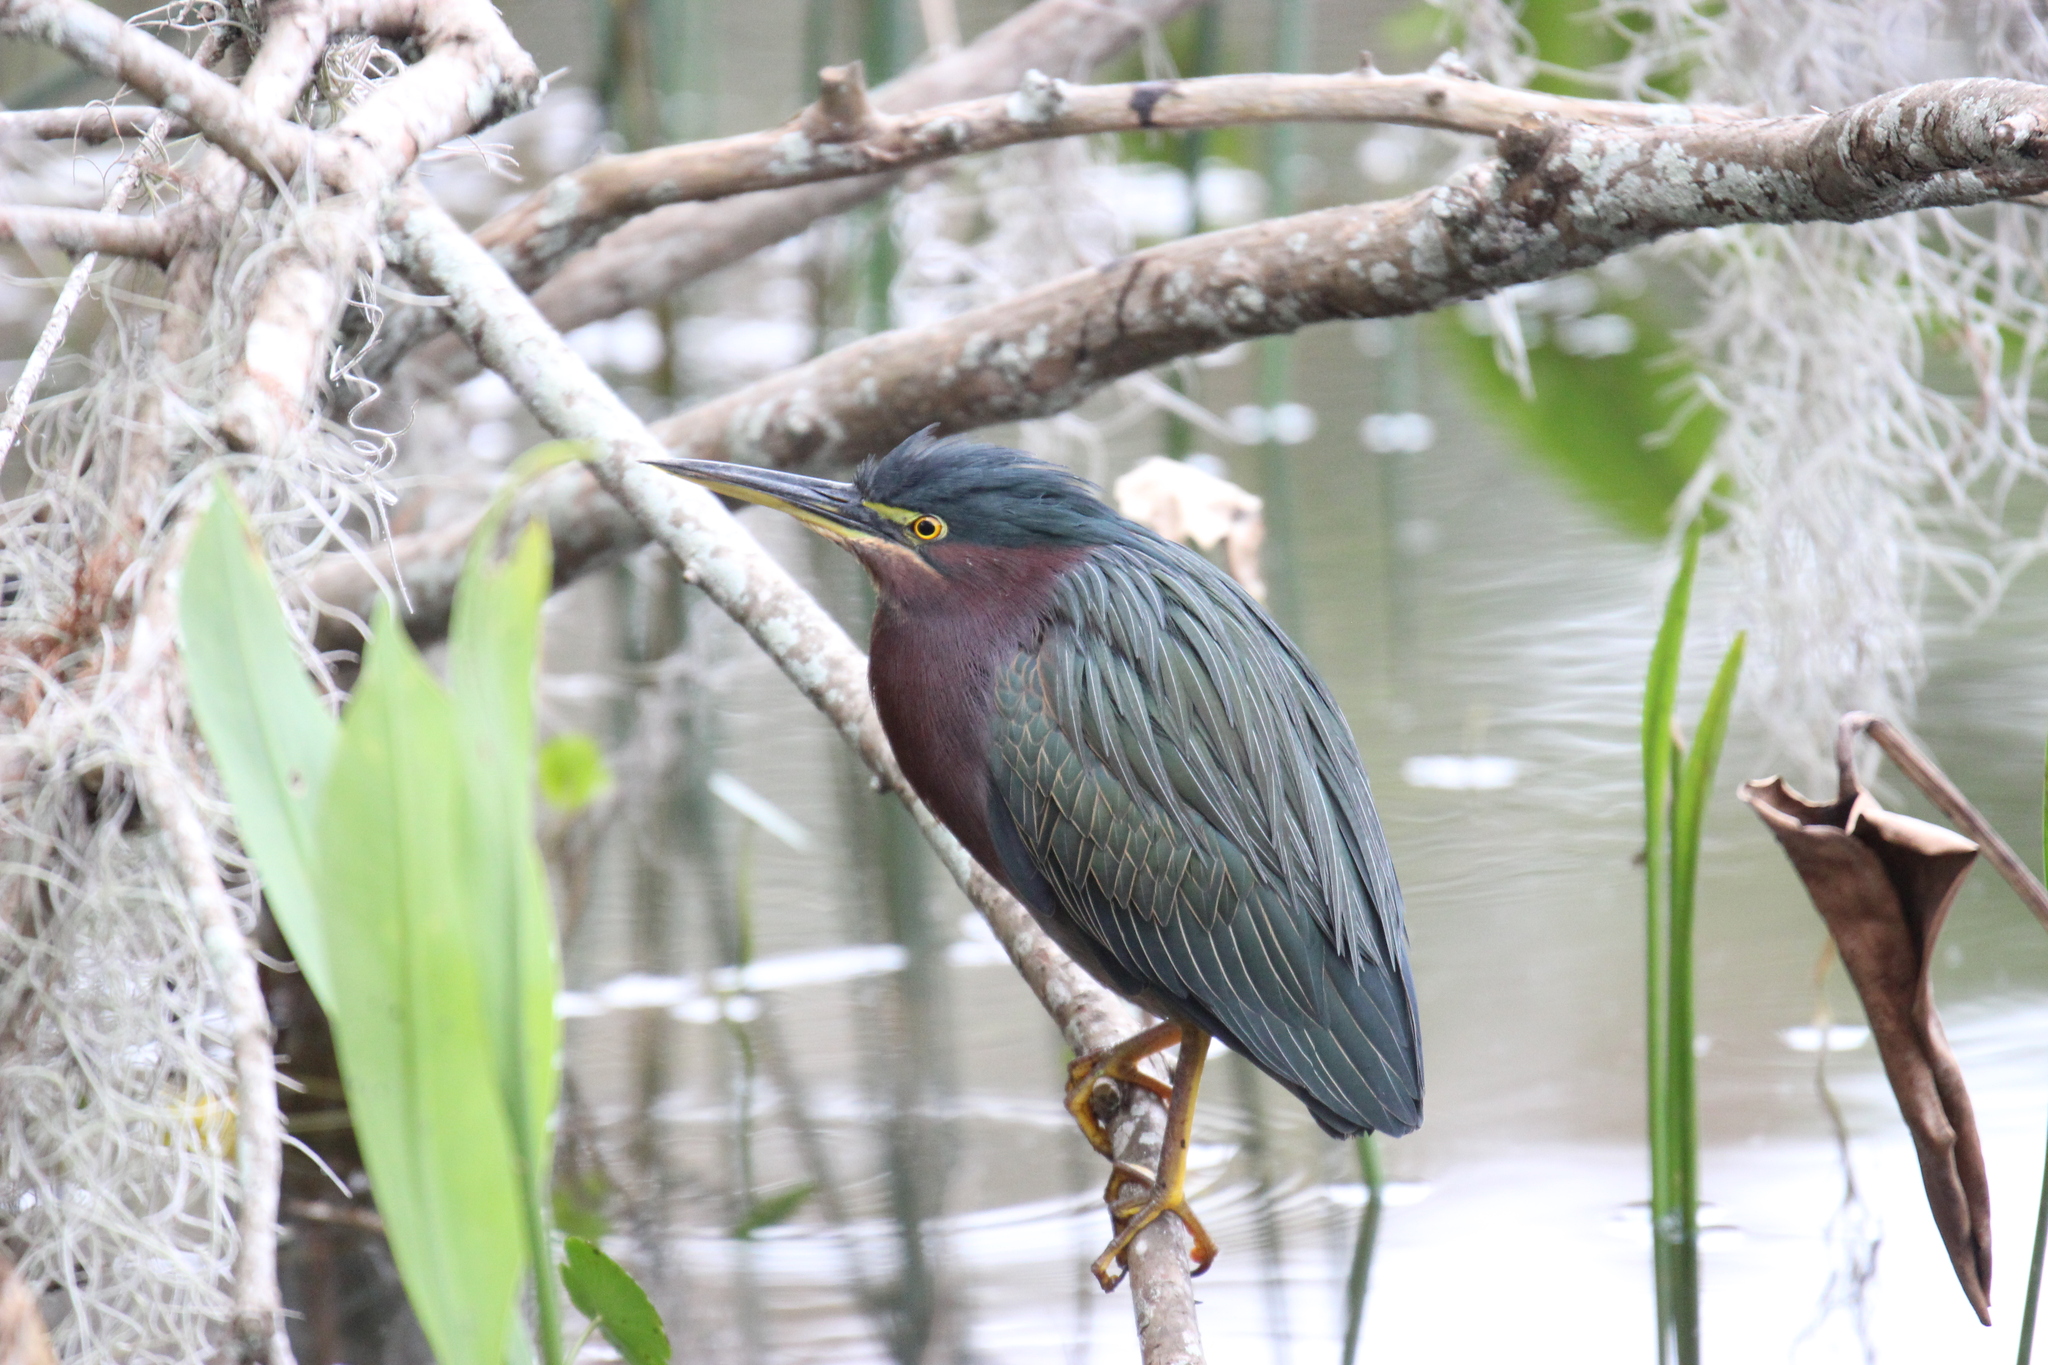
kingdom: Animalia
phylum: Chordata
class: Aves
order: Pelecaniformes
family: Ardeidae
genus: Butorides
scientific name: Butorides virescens
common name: Green heron
